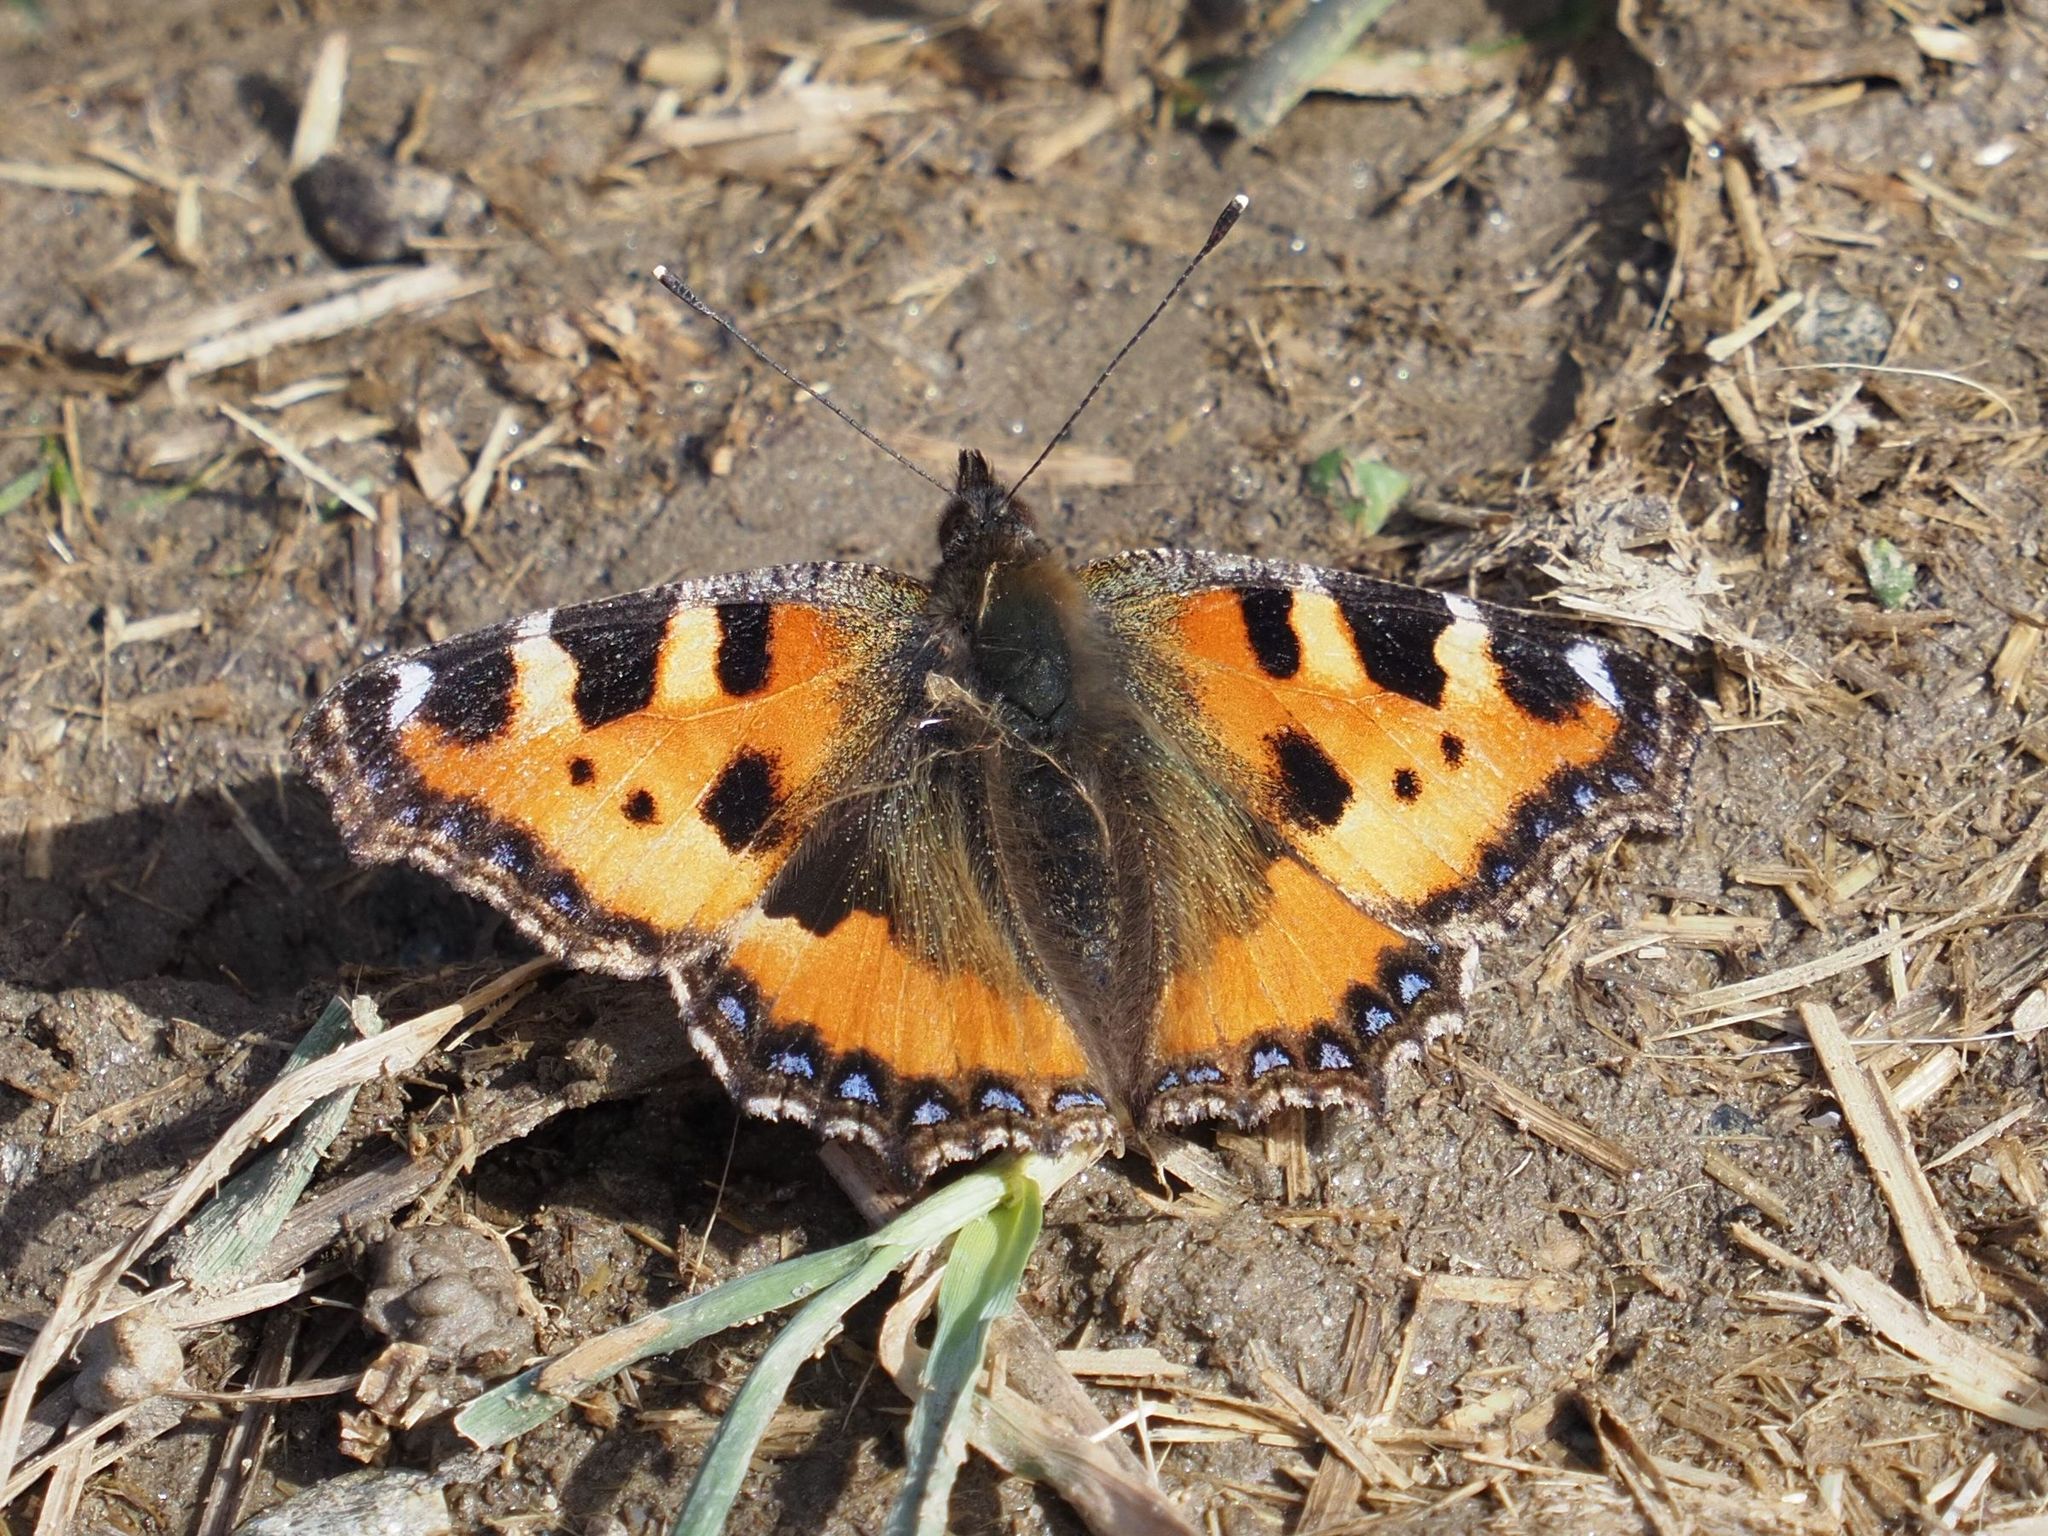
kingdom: Animalia
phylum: Arthropoda
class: Insecta
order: Lepidoptera
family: Nymphalidae
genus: Aglais
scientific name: Aglais urticae
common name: Small tortoiseshell
